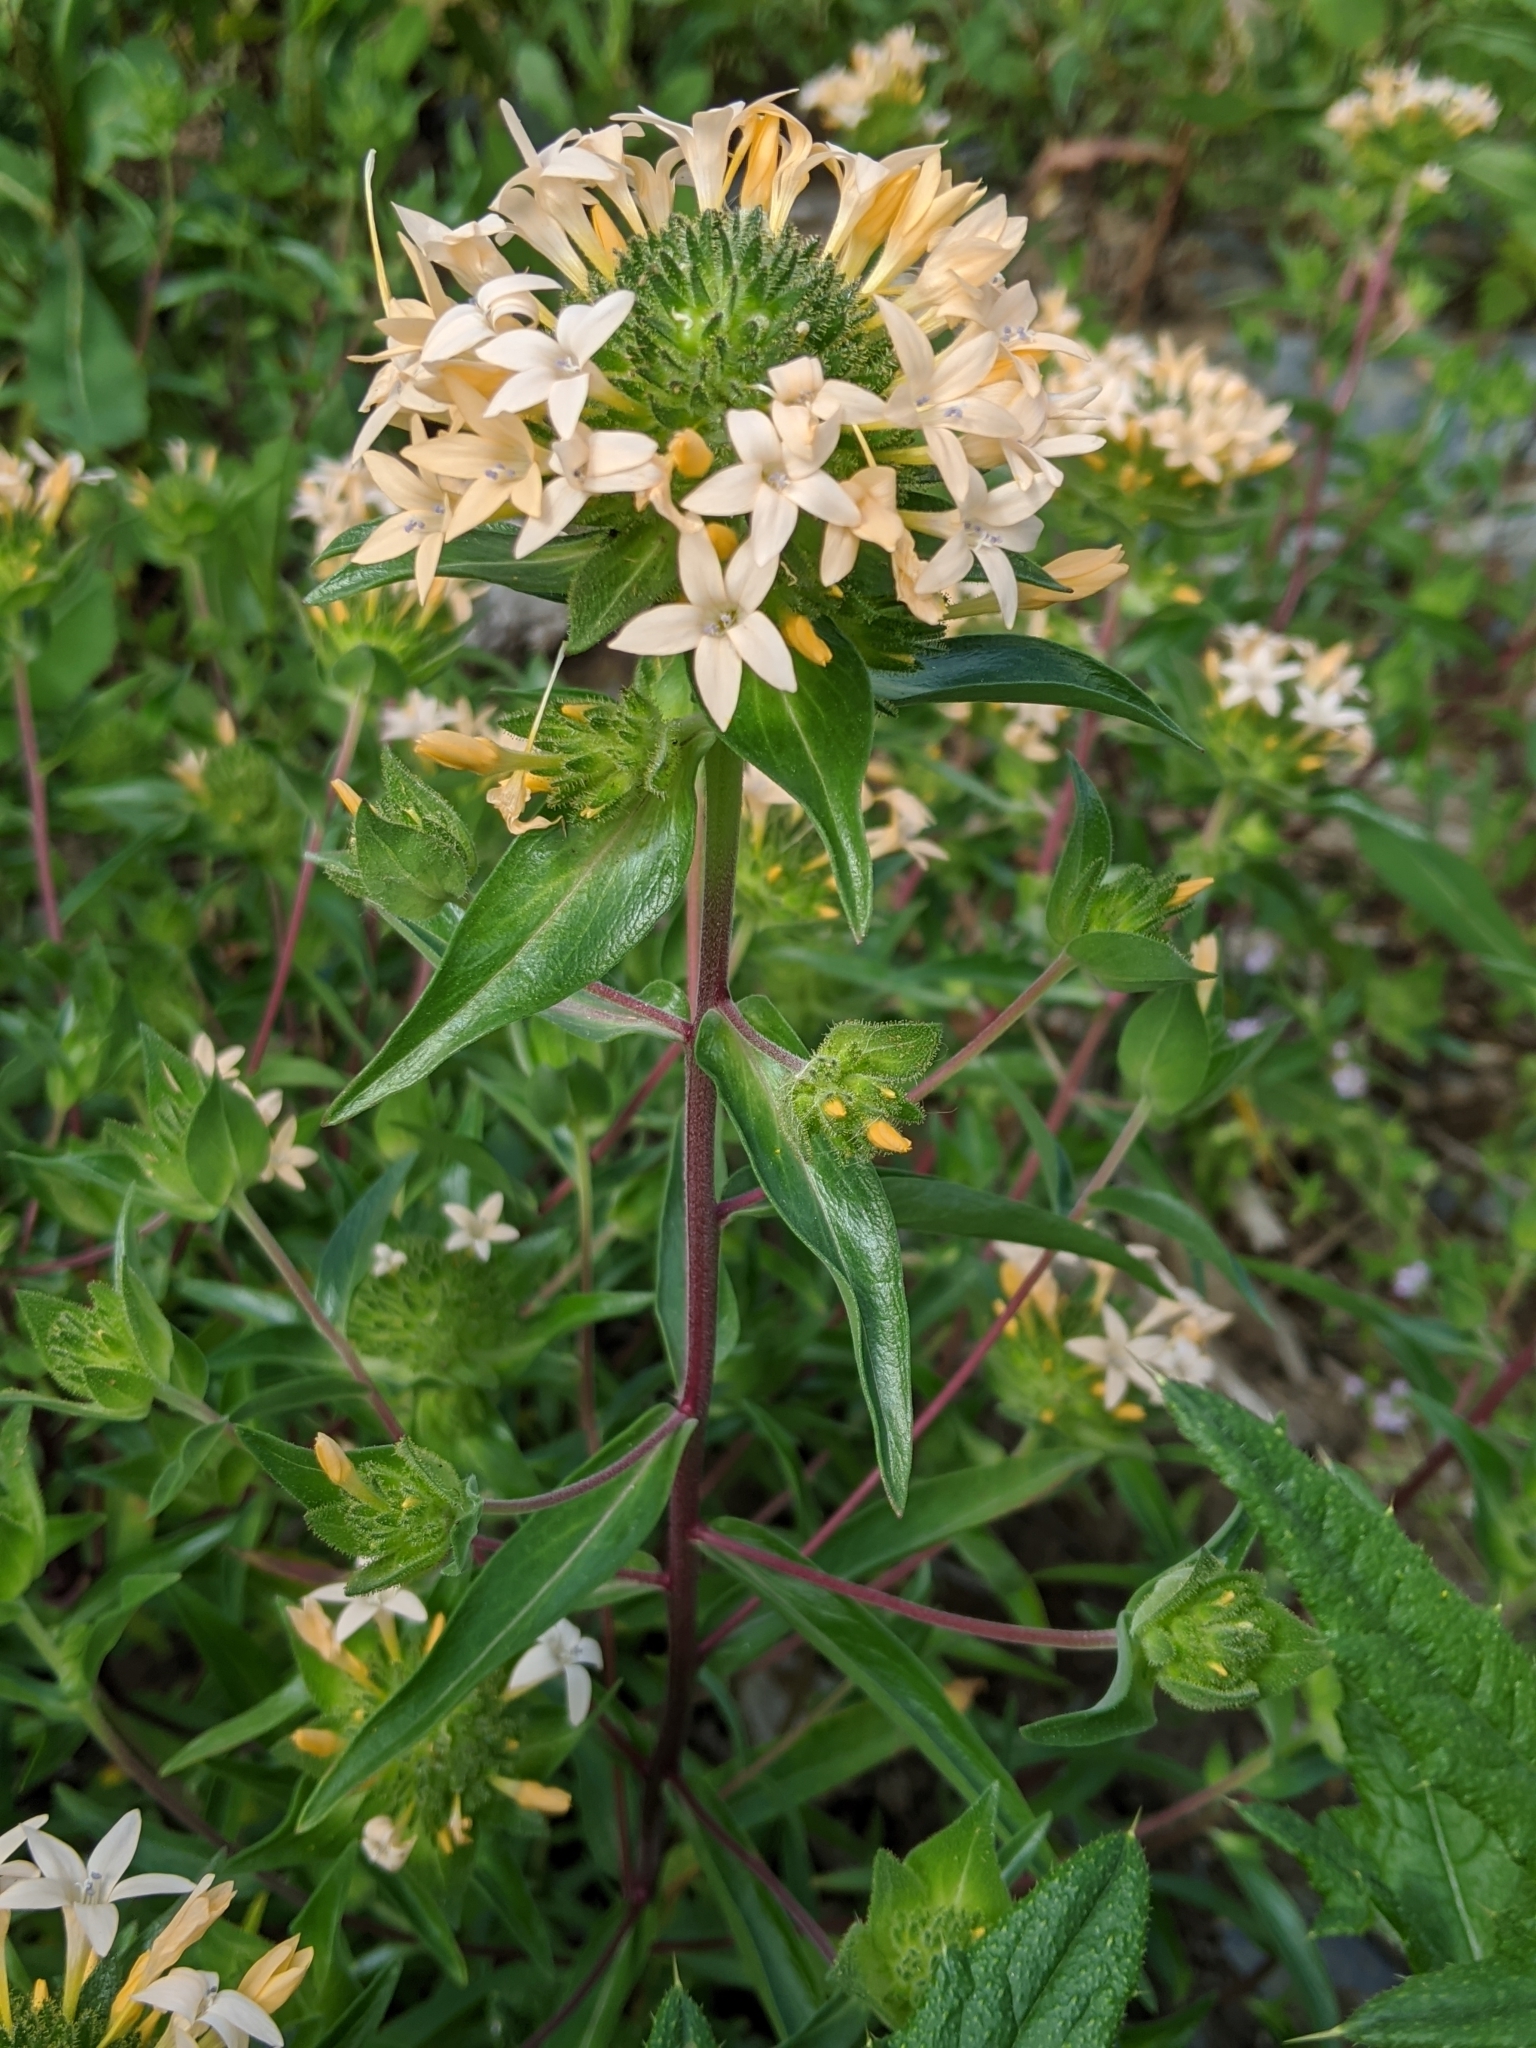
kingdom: Plantae
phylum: Tracheophyta
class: Magnoliopsida
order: Ericales
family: Polemoniaceae
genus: Collomia
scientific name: Collomia grandiflora
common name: California strawflower
